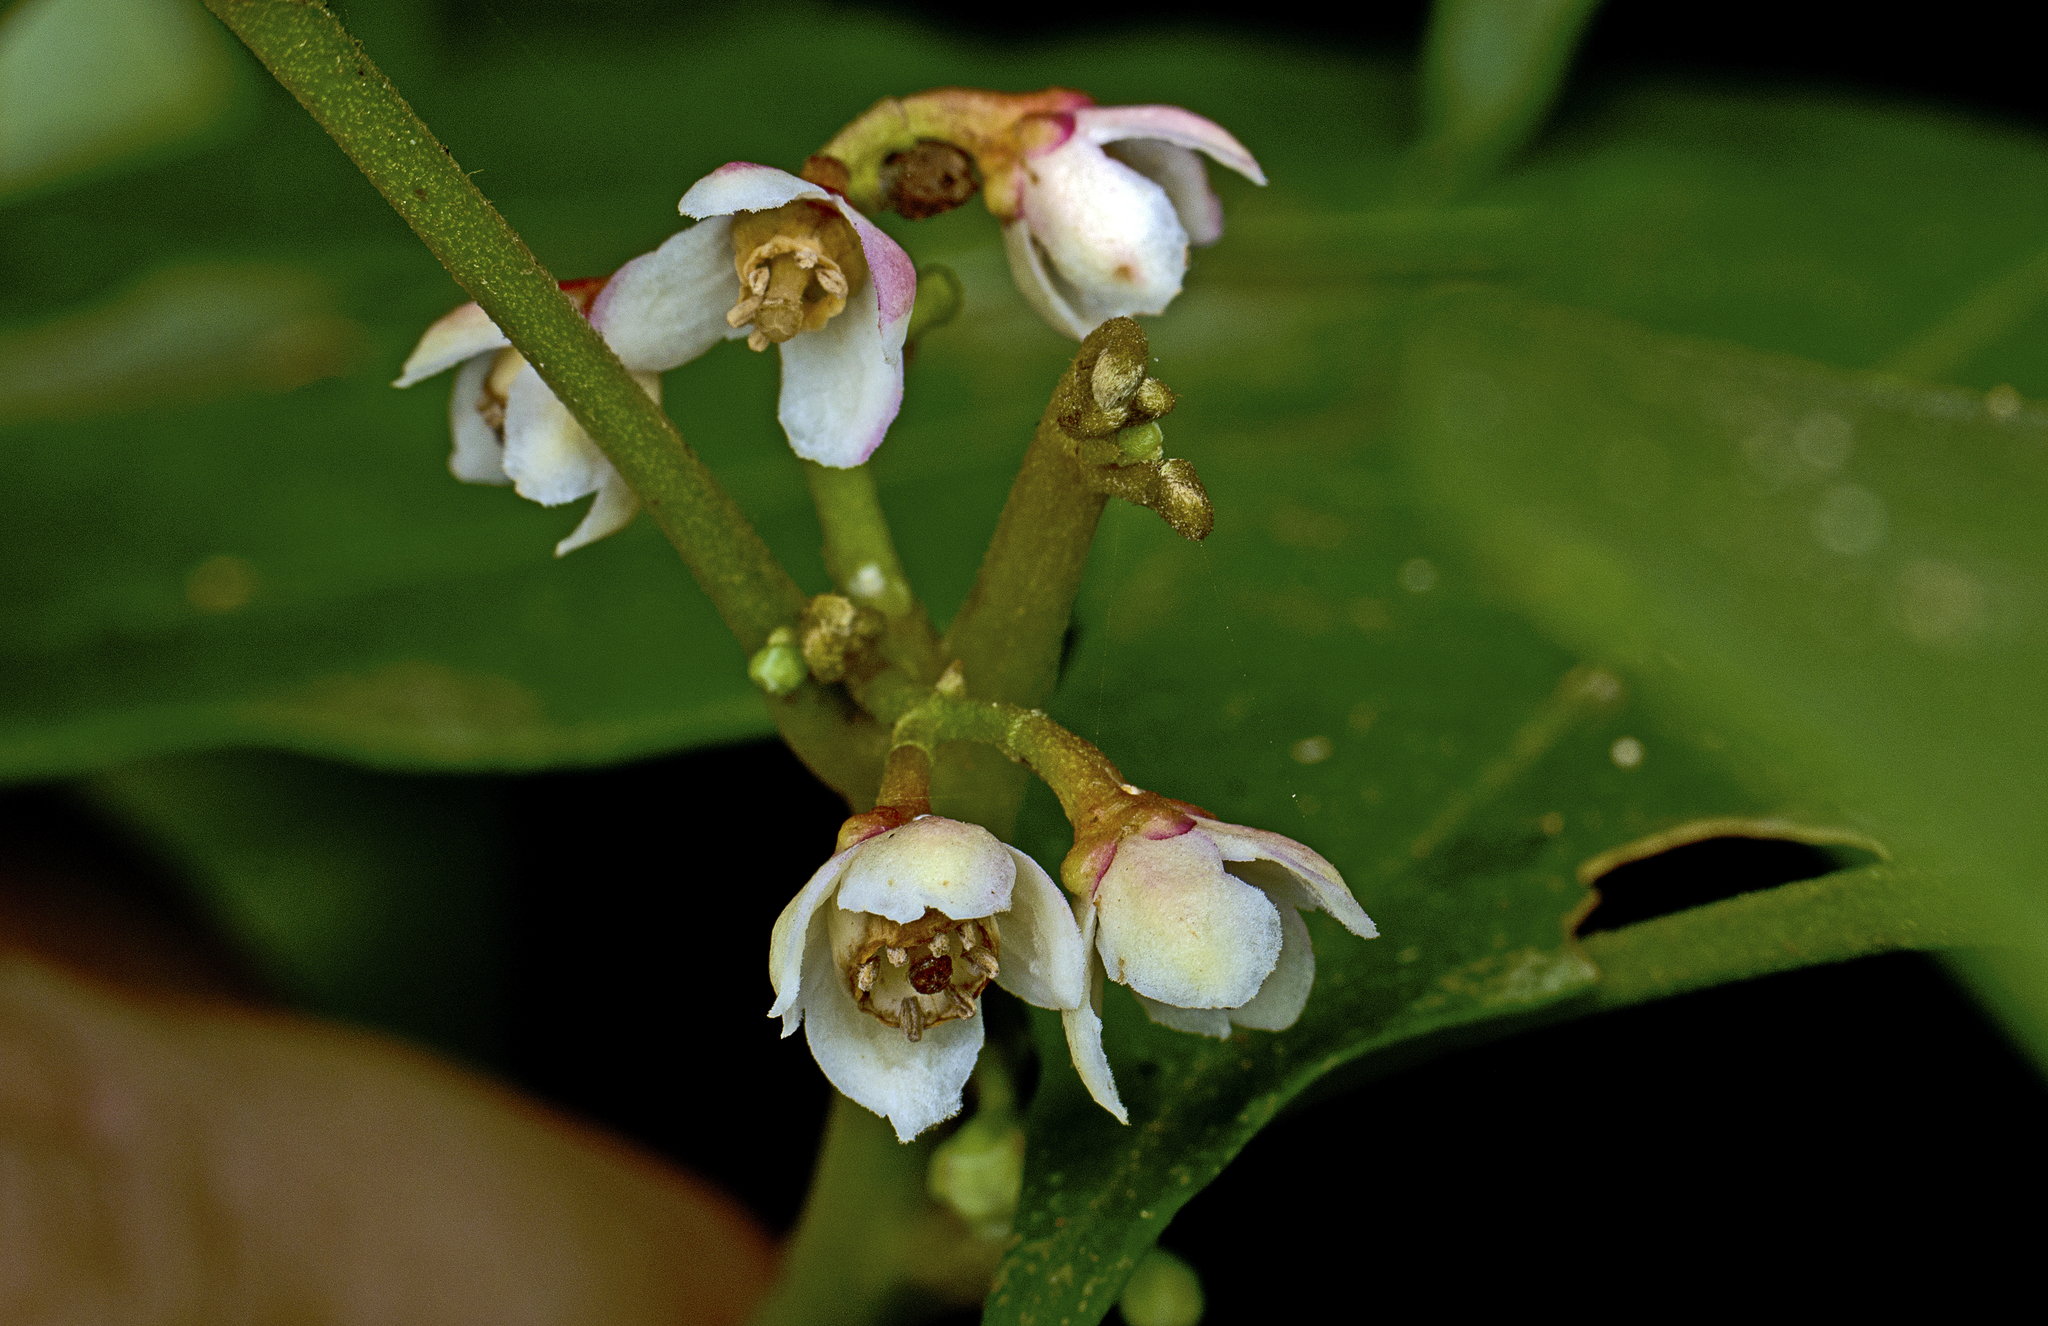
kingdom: Plantae
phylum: Tracheophyta
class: Magnoliopsida
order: Sapindales
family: Meliaceae
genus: Synoum
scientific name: Synoum glandulosum
